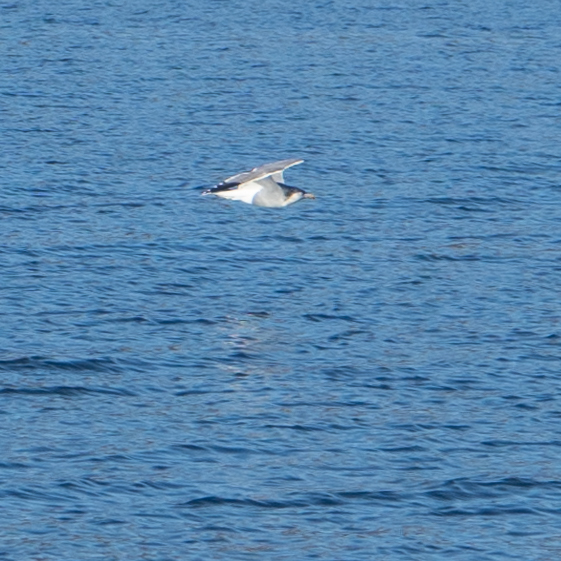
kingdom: Animalia
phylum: Chordata
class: Aves
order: Charadriiformes
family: Laridae
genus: Larus
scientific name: Larus californicus
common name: California gull
